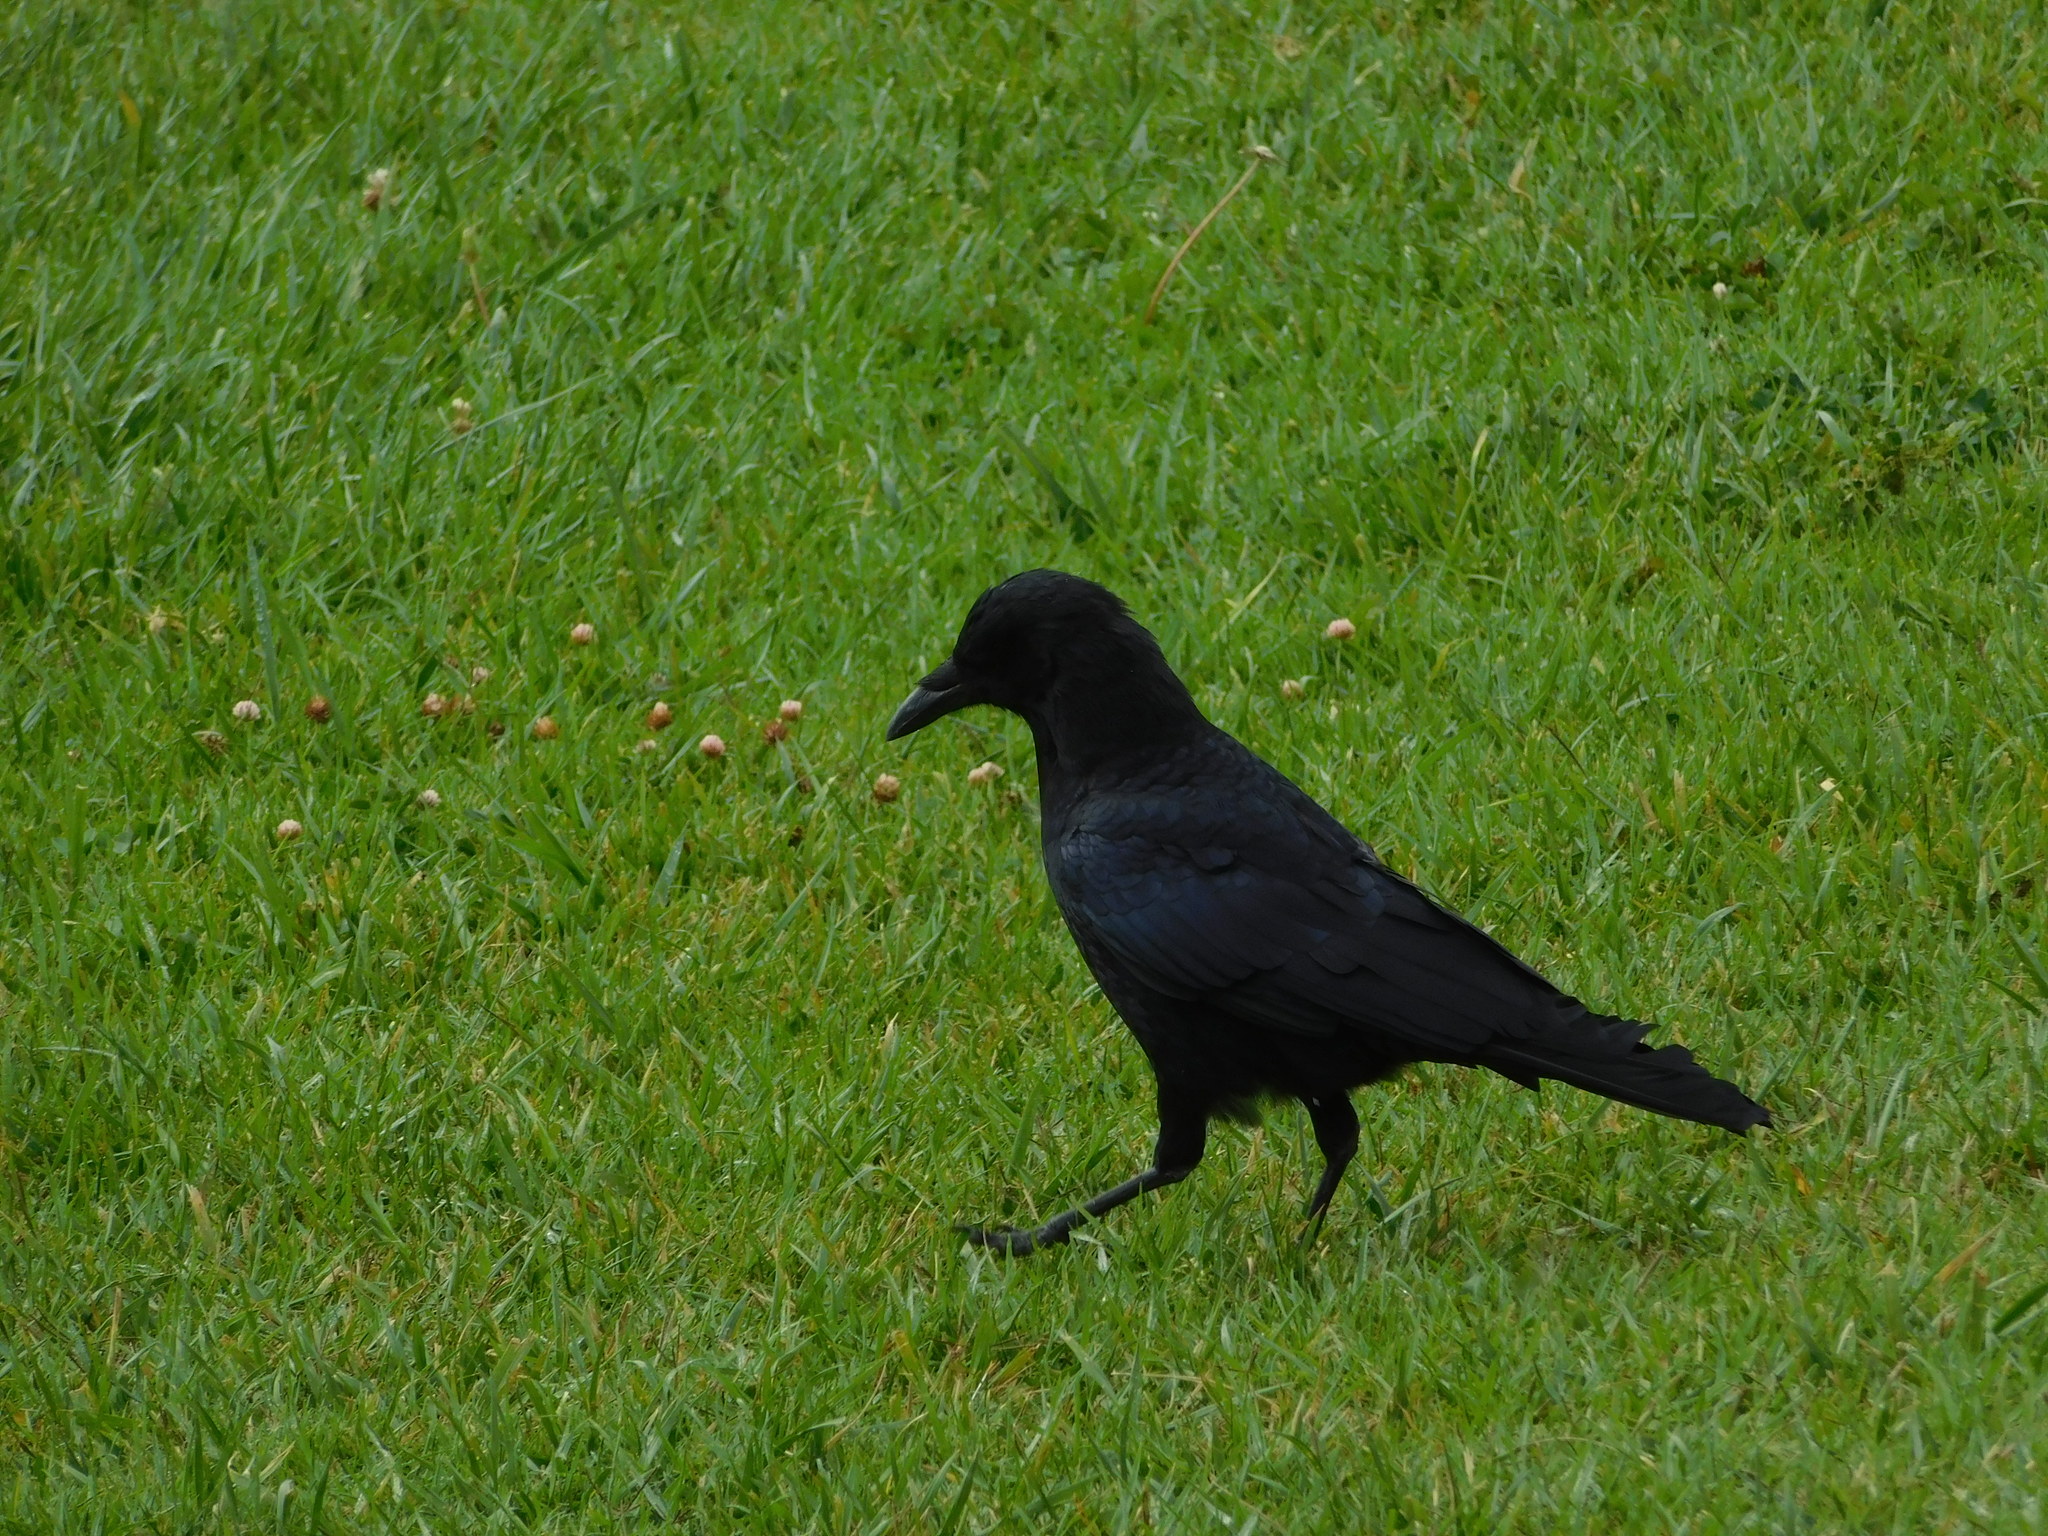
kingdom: Animalia
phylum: Chordata
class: Aves
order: Passeriformes
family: Corvidae
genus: Corvus
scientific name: Corvus brachyrhynchos
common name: American crow
